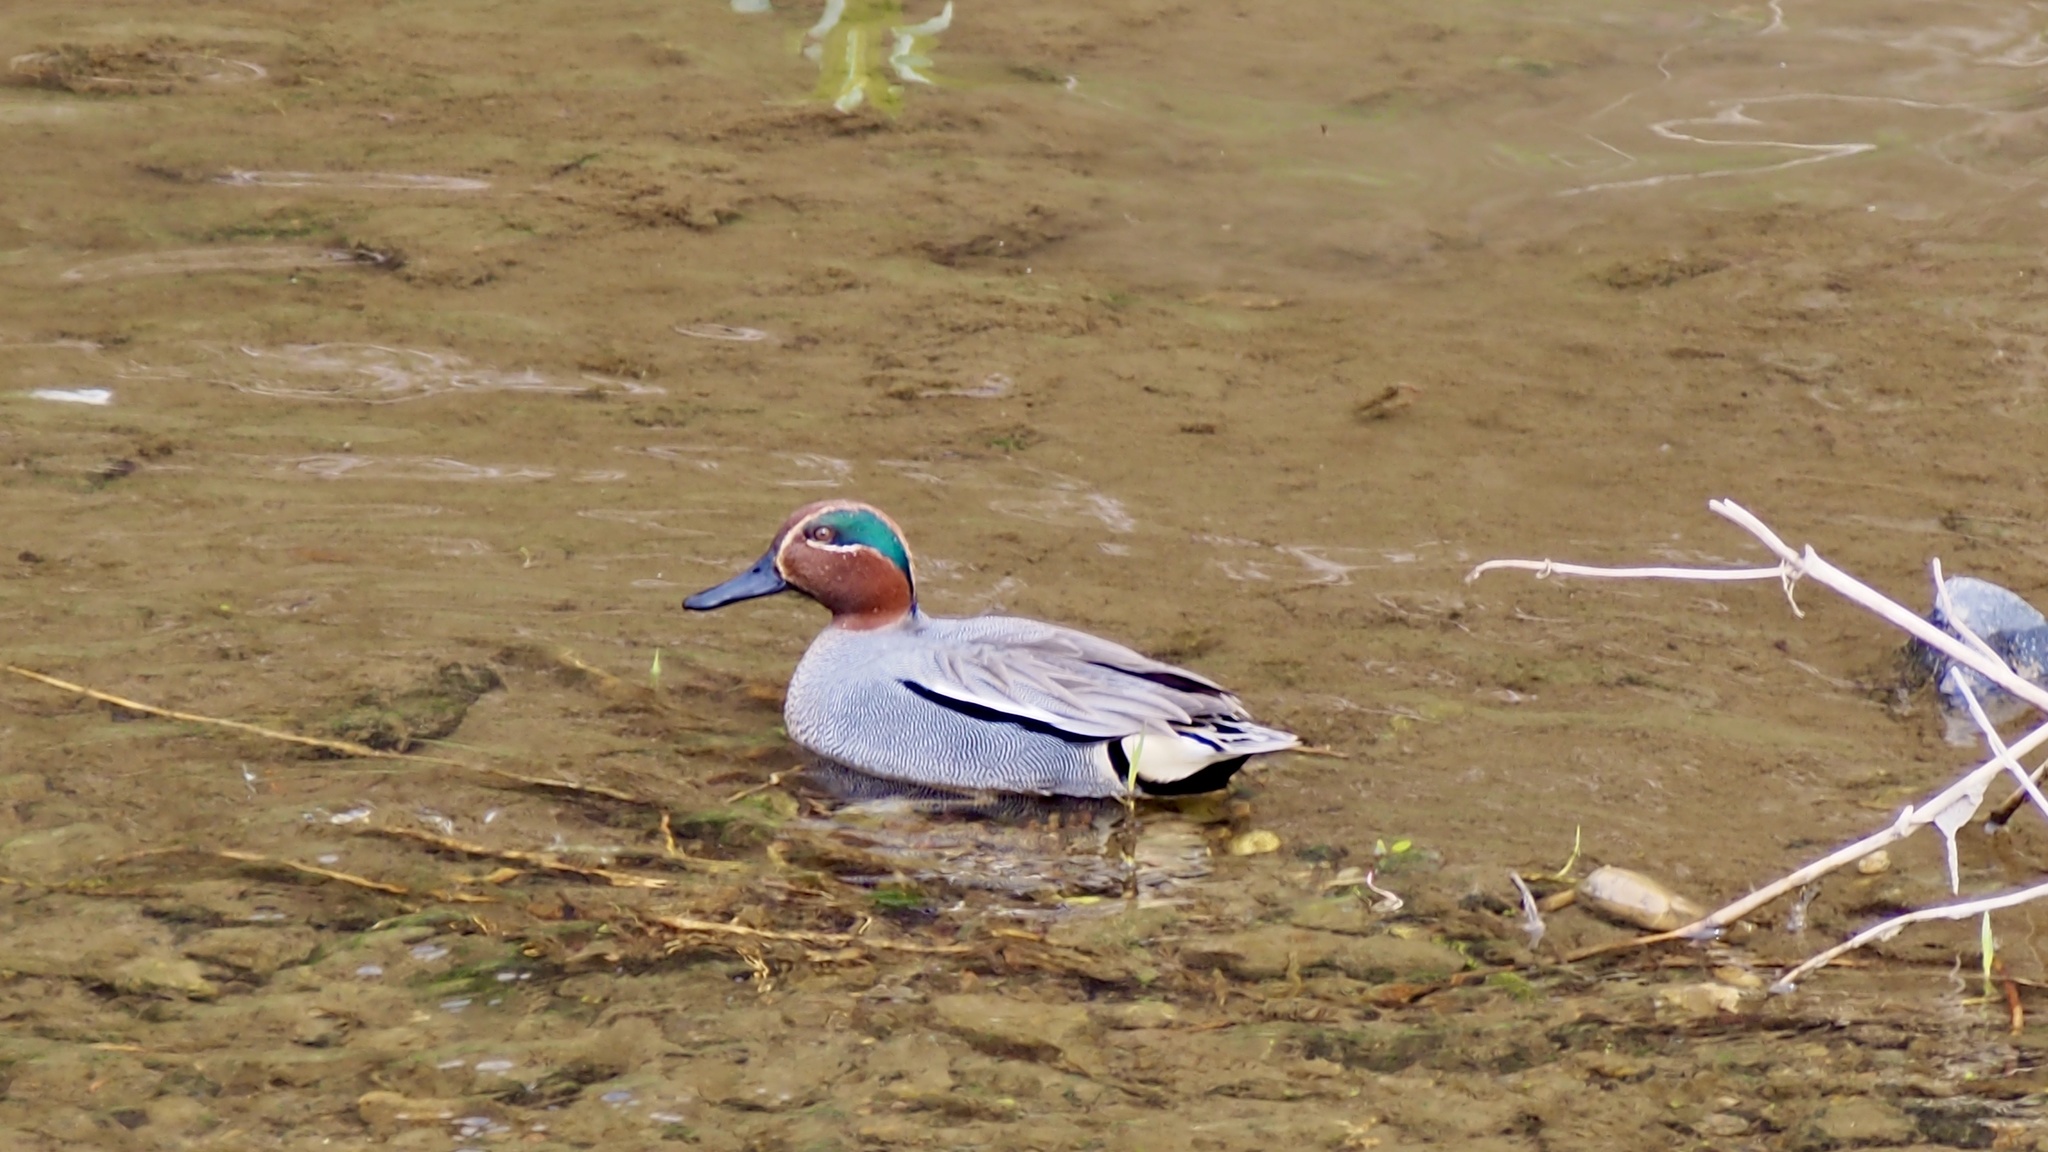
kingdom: Animalia
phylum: Chordata
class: Aves
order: Anseriformes
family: Anatidae
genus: Anas
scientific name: Anas crecca
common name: Eurasian teal
